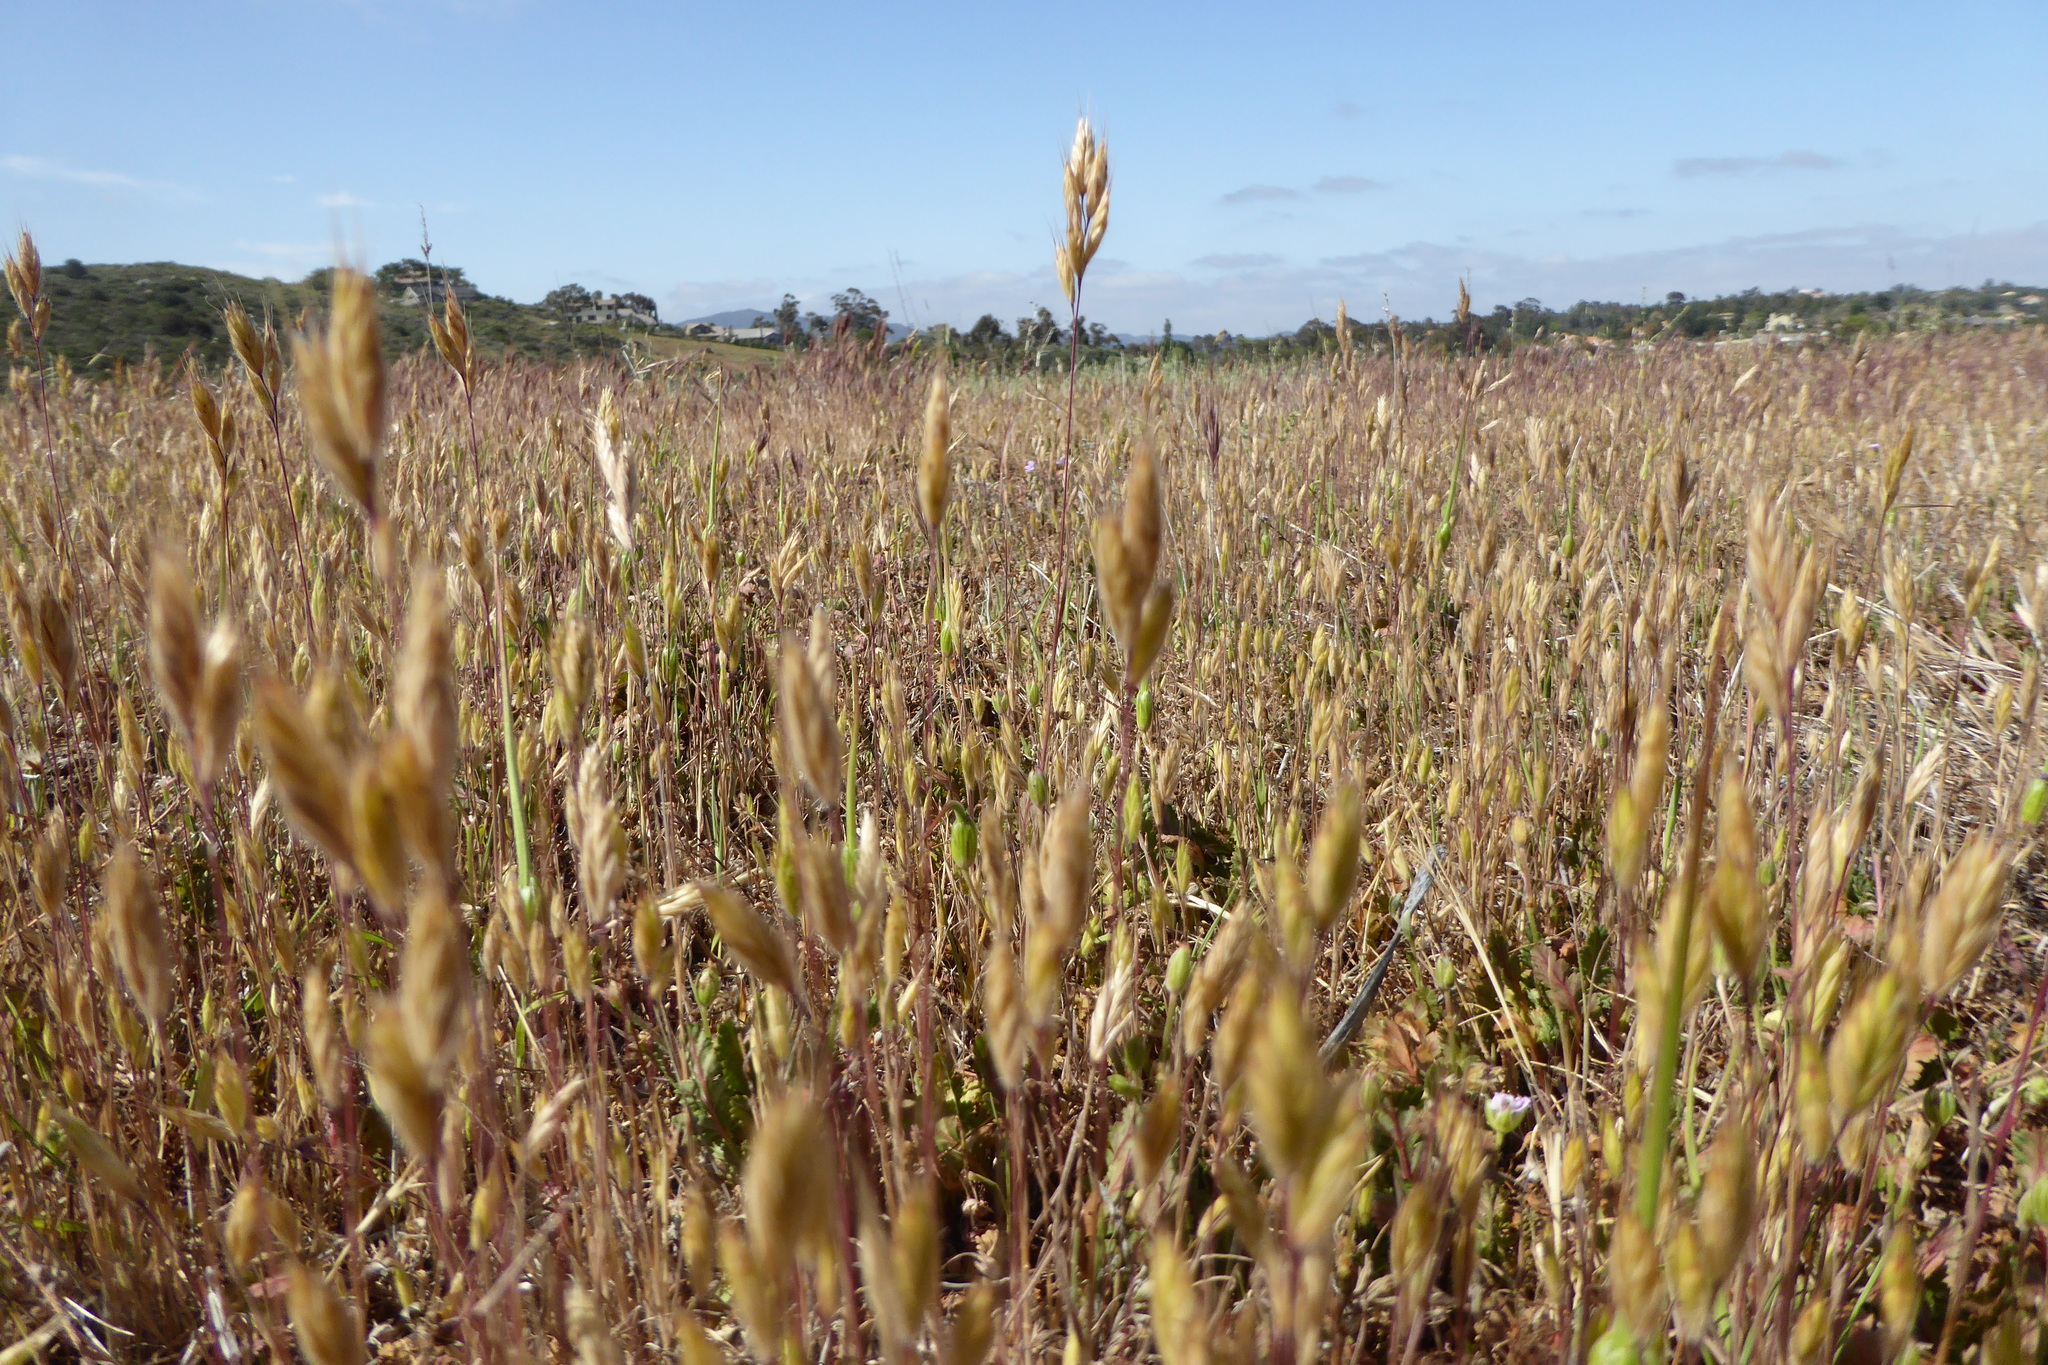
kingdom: Plantae
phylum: Tracheophyta
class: Liliopsida
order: Poales
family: Poaceae
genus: Bromus
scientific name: Bromus hordeaceus
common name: Soft brome
